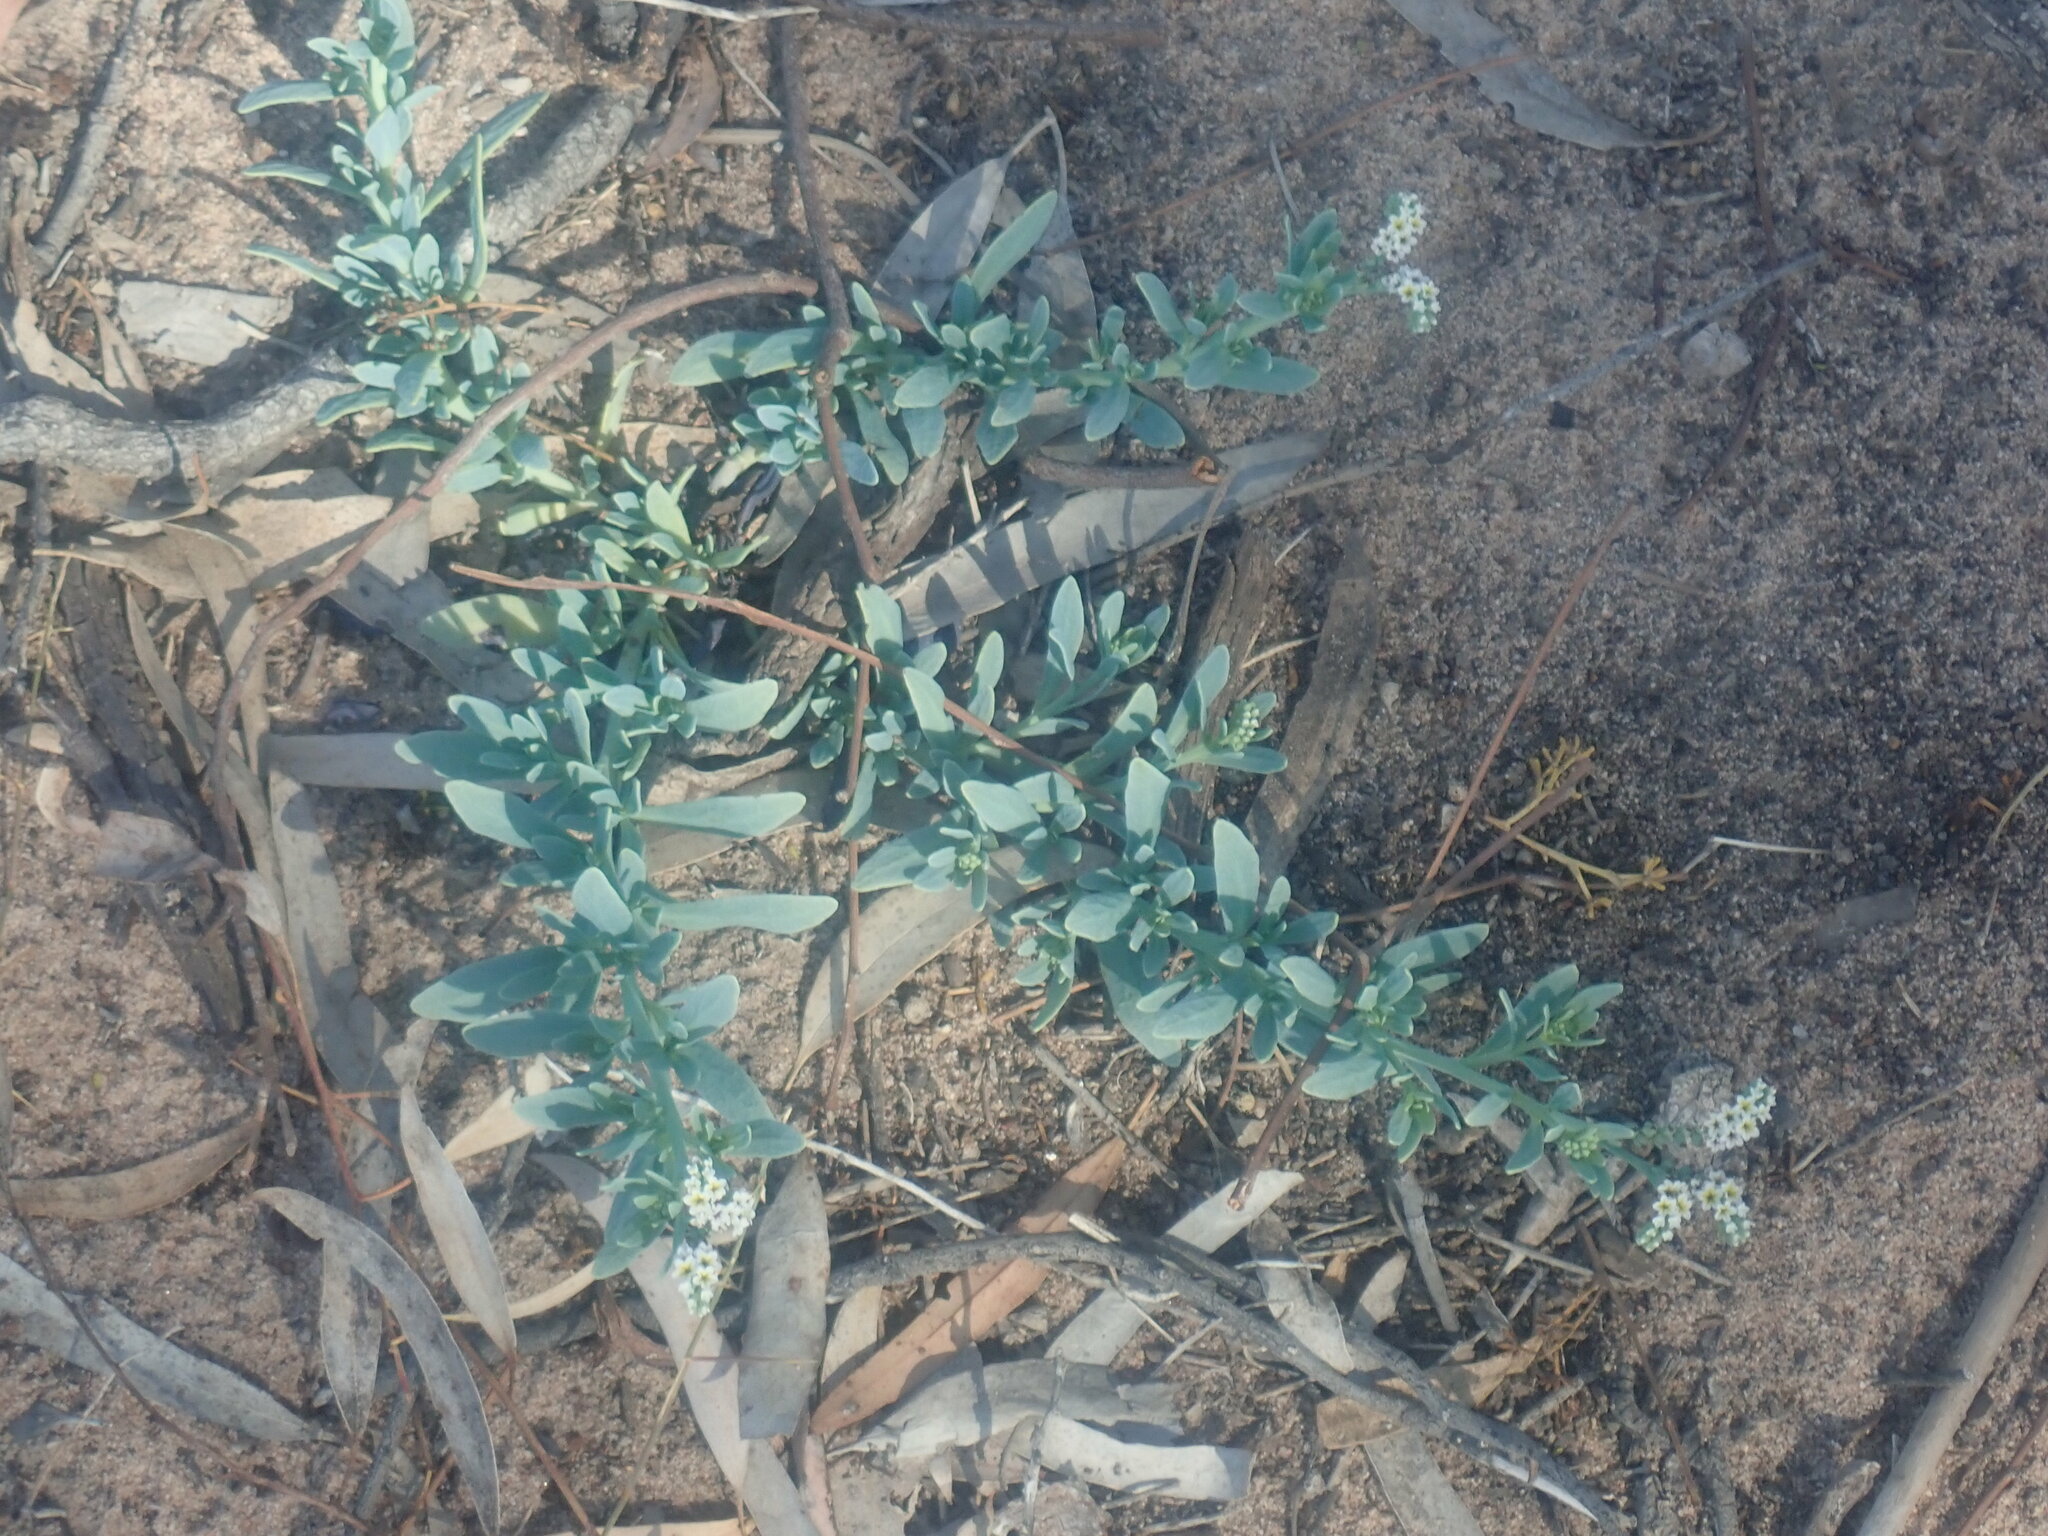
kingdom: Plantae
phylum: Tracheophyta
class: Magnoliopsida
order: Boraginales
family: Heliotropiaceae
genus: Heliotropium
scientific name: Heliotropium curassavicum
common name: Seaside heliotrope
